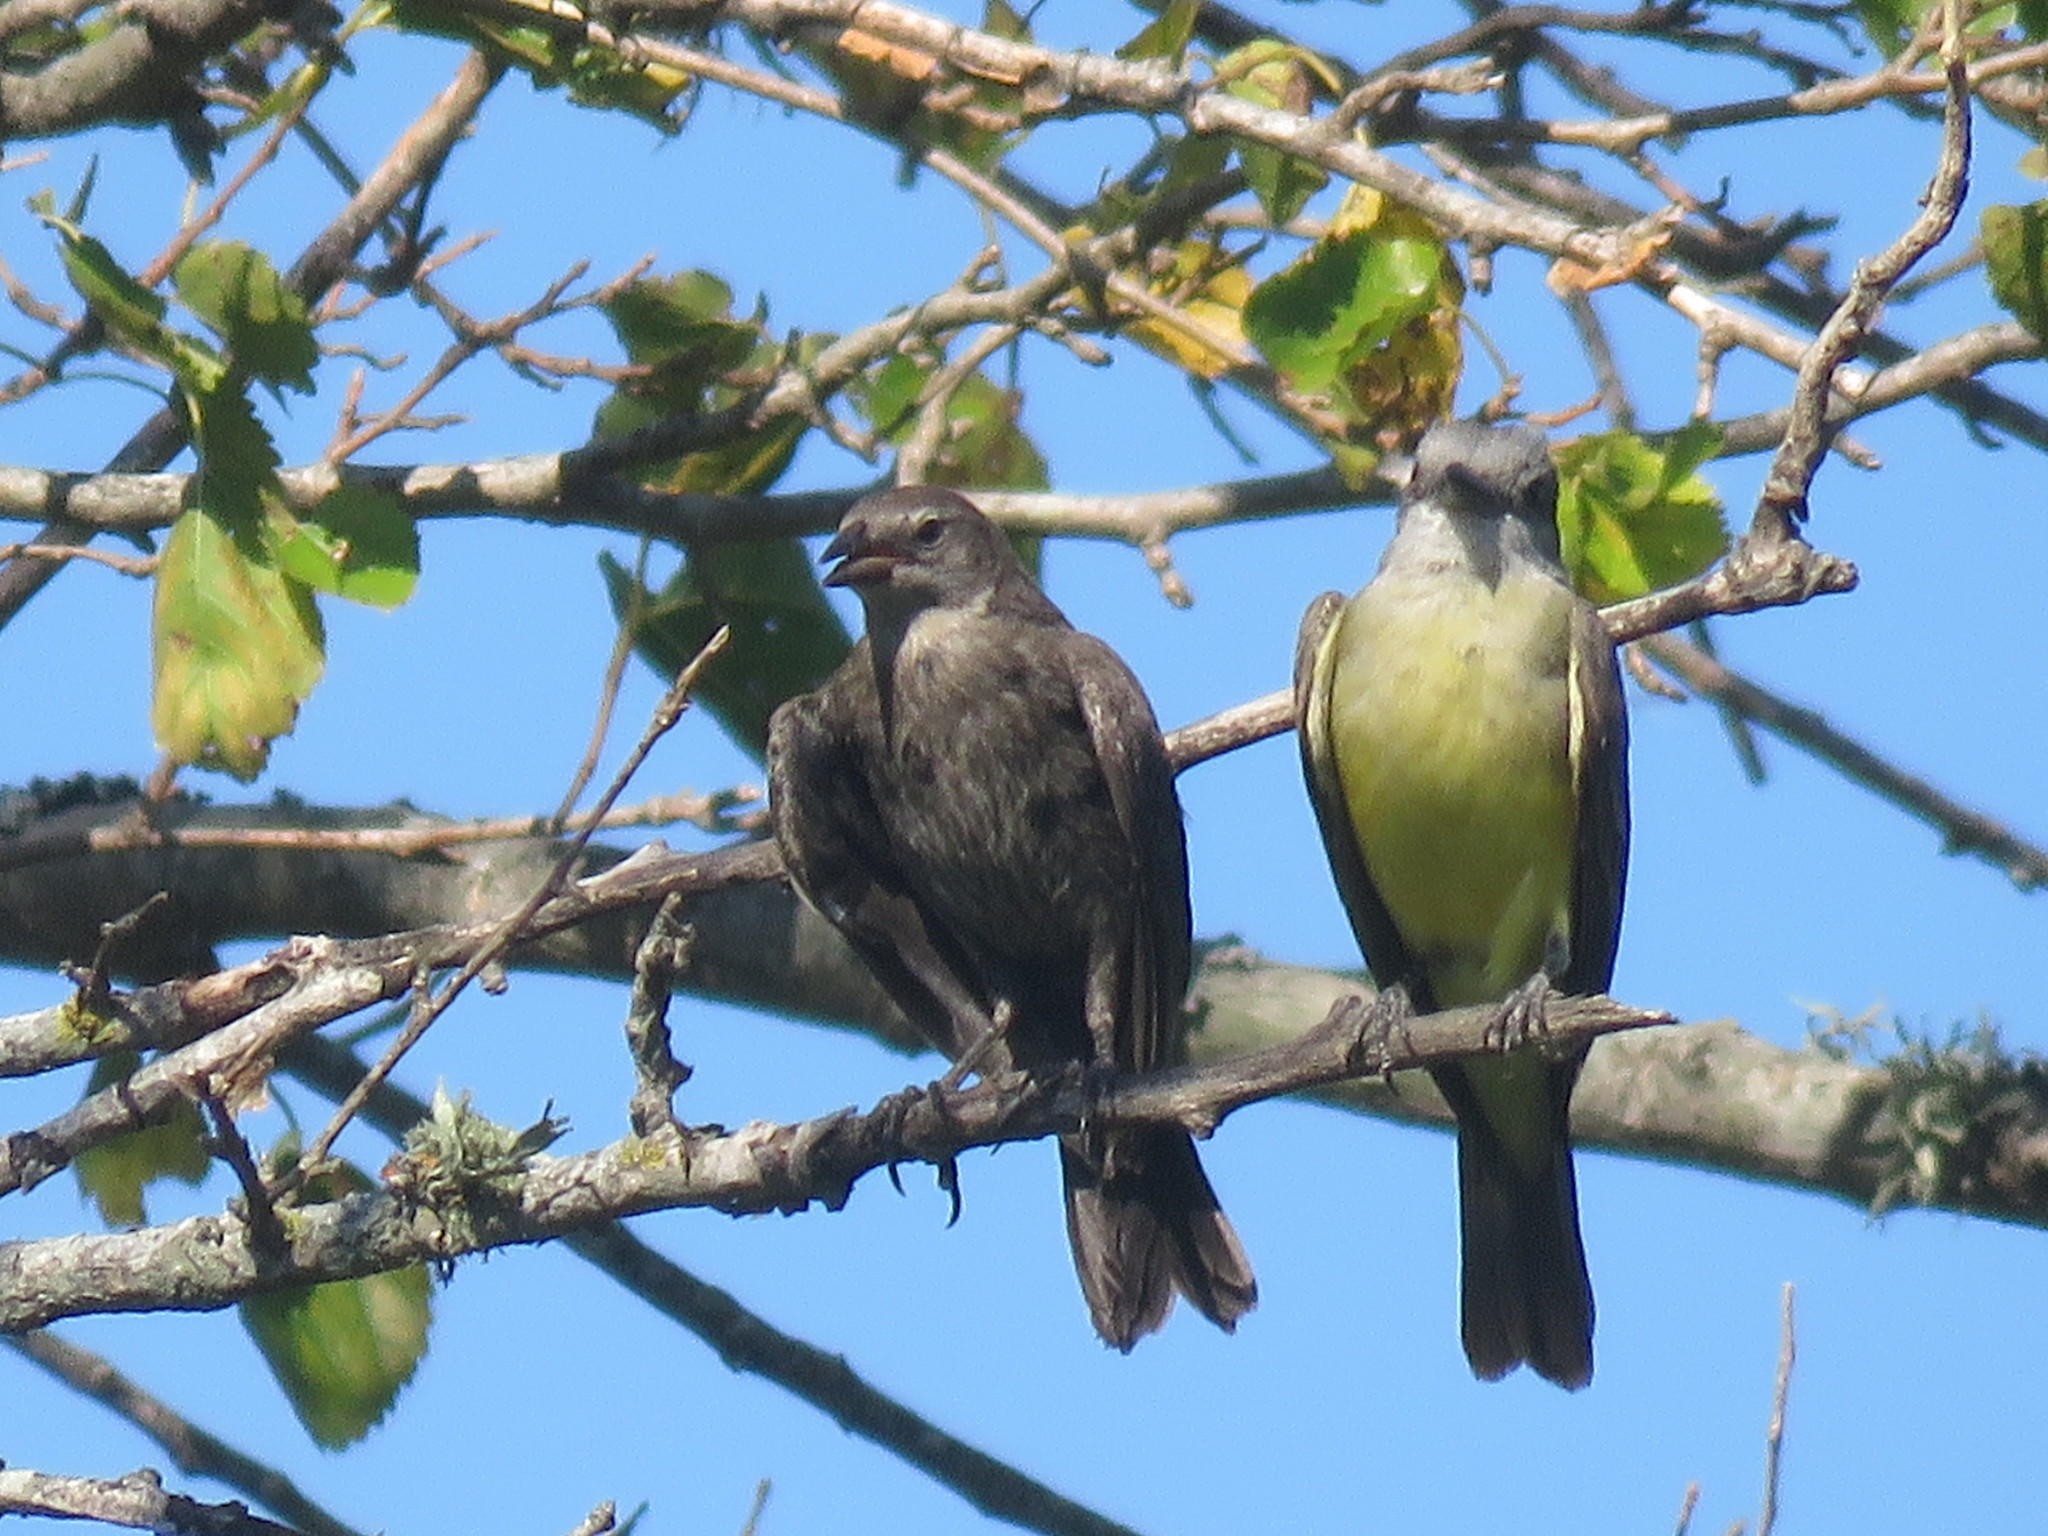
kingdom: Animalia
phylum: Chordata
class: Aves
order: Passeriformes
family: Icteridae
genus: Molothrus
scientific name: Molothrus bonariensis
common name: Shiny cowbird
